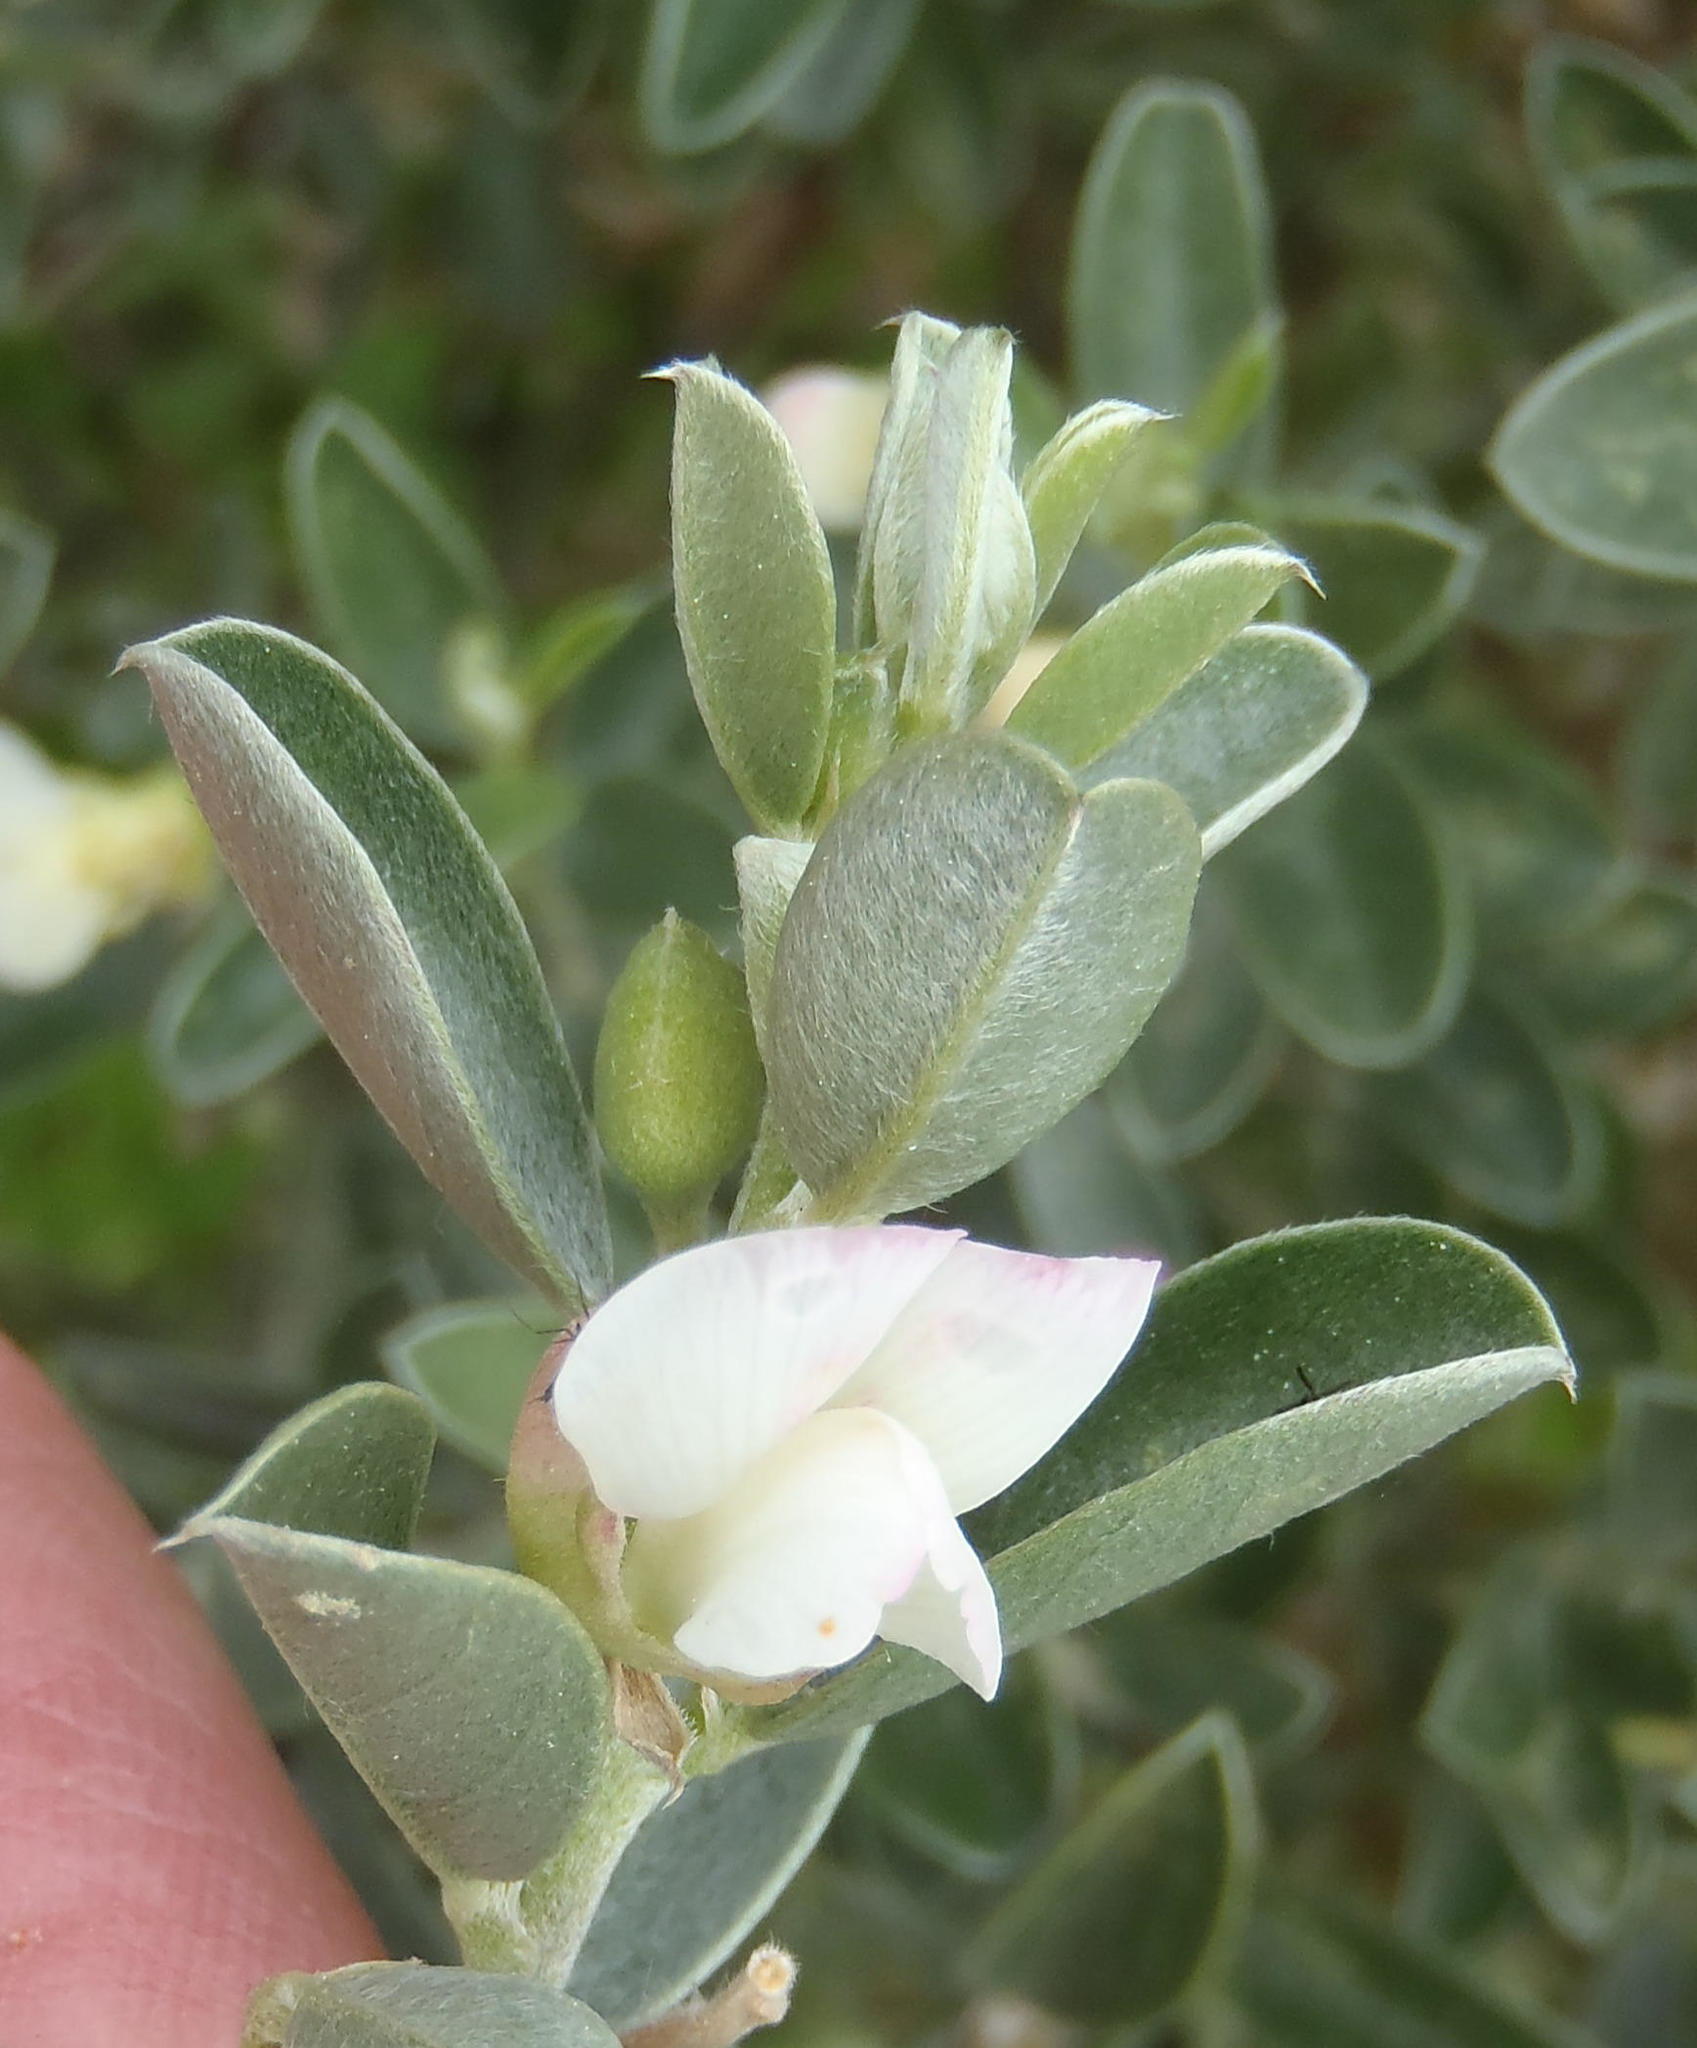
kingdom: Plantae
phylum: Tracheophyta
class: Magnoliopsida
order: Fabales
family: Fabaceae
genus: Podalyria
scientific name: Podalyria myrtillifolia
